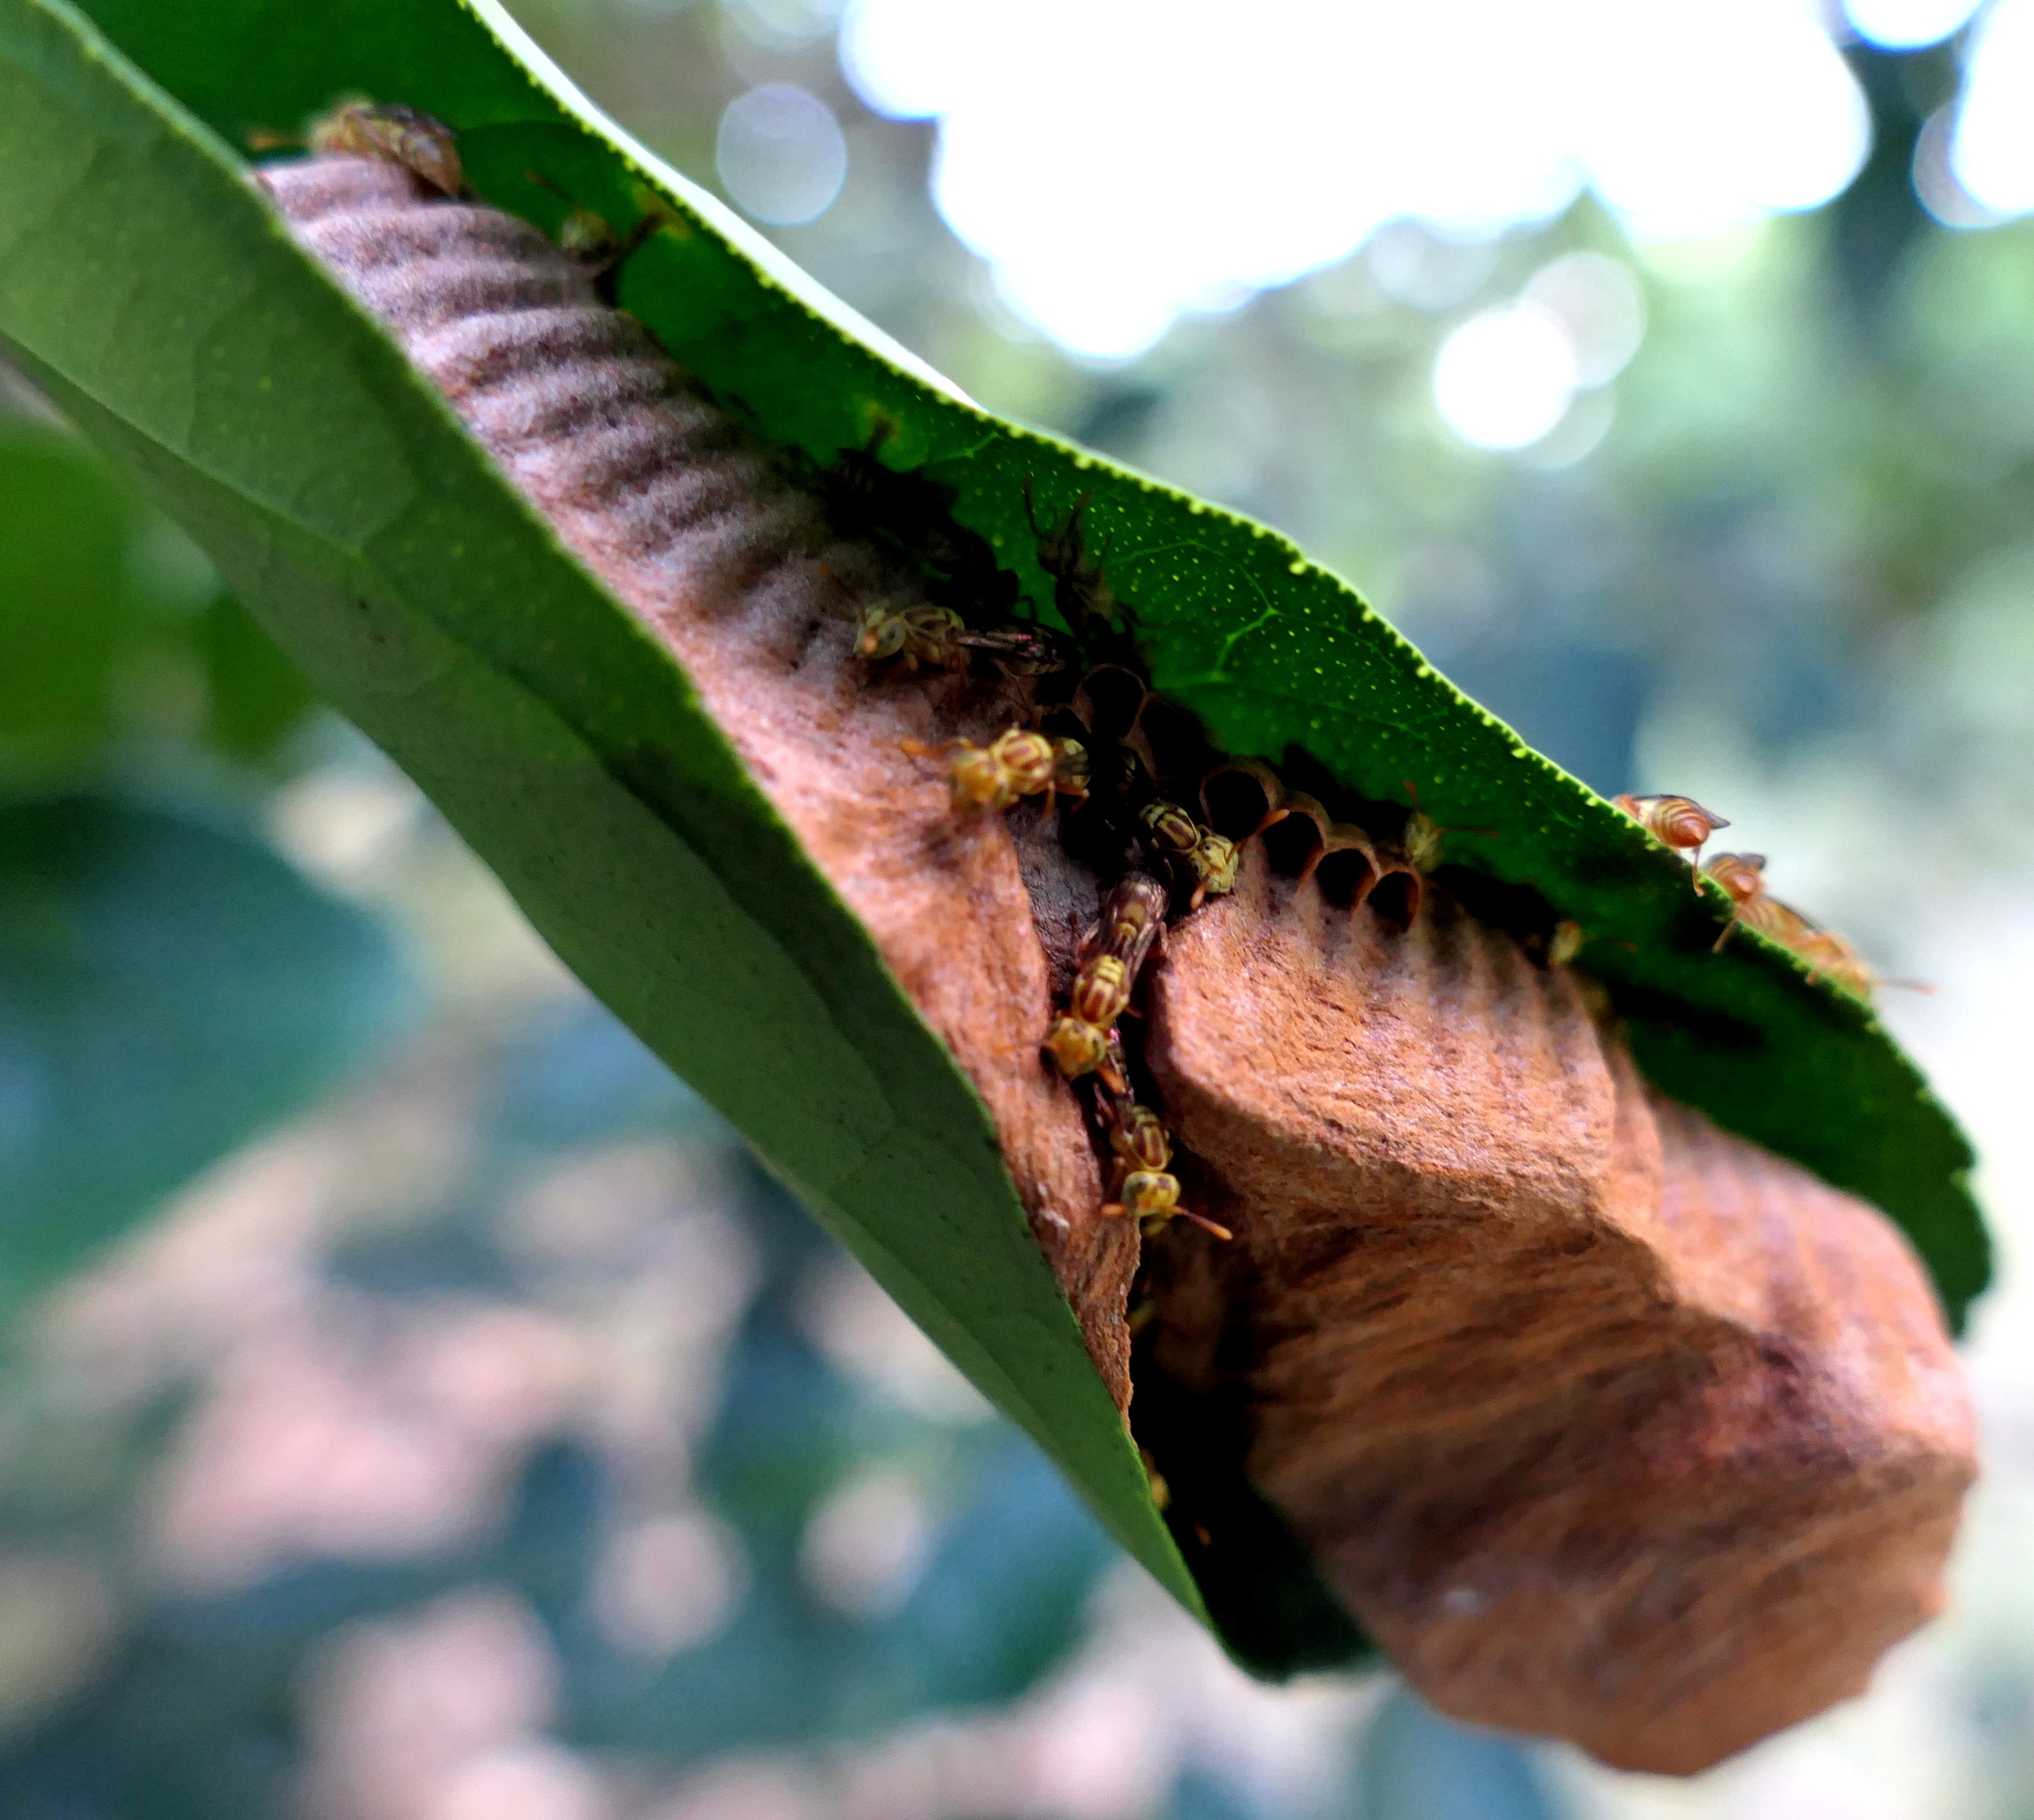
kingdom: Animalia
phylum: Arthropoda
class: Insecta
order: Hymenoptera
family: Vespidae
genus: Protopolybia
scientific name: Protopolybia potiguara
